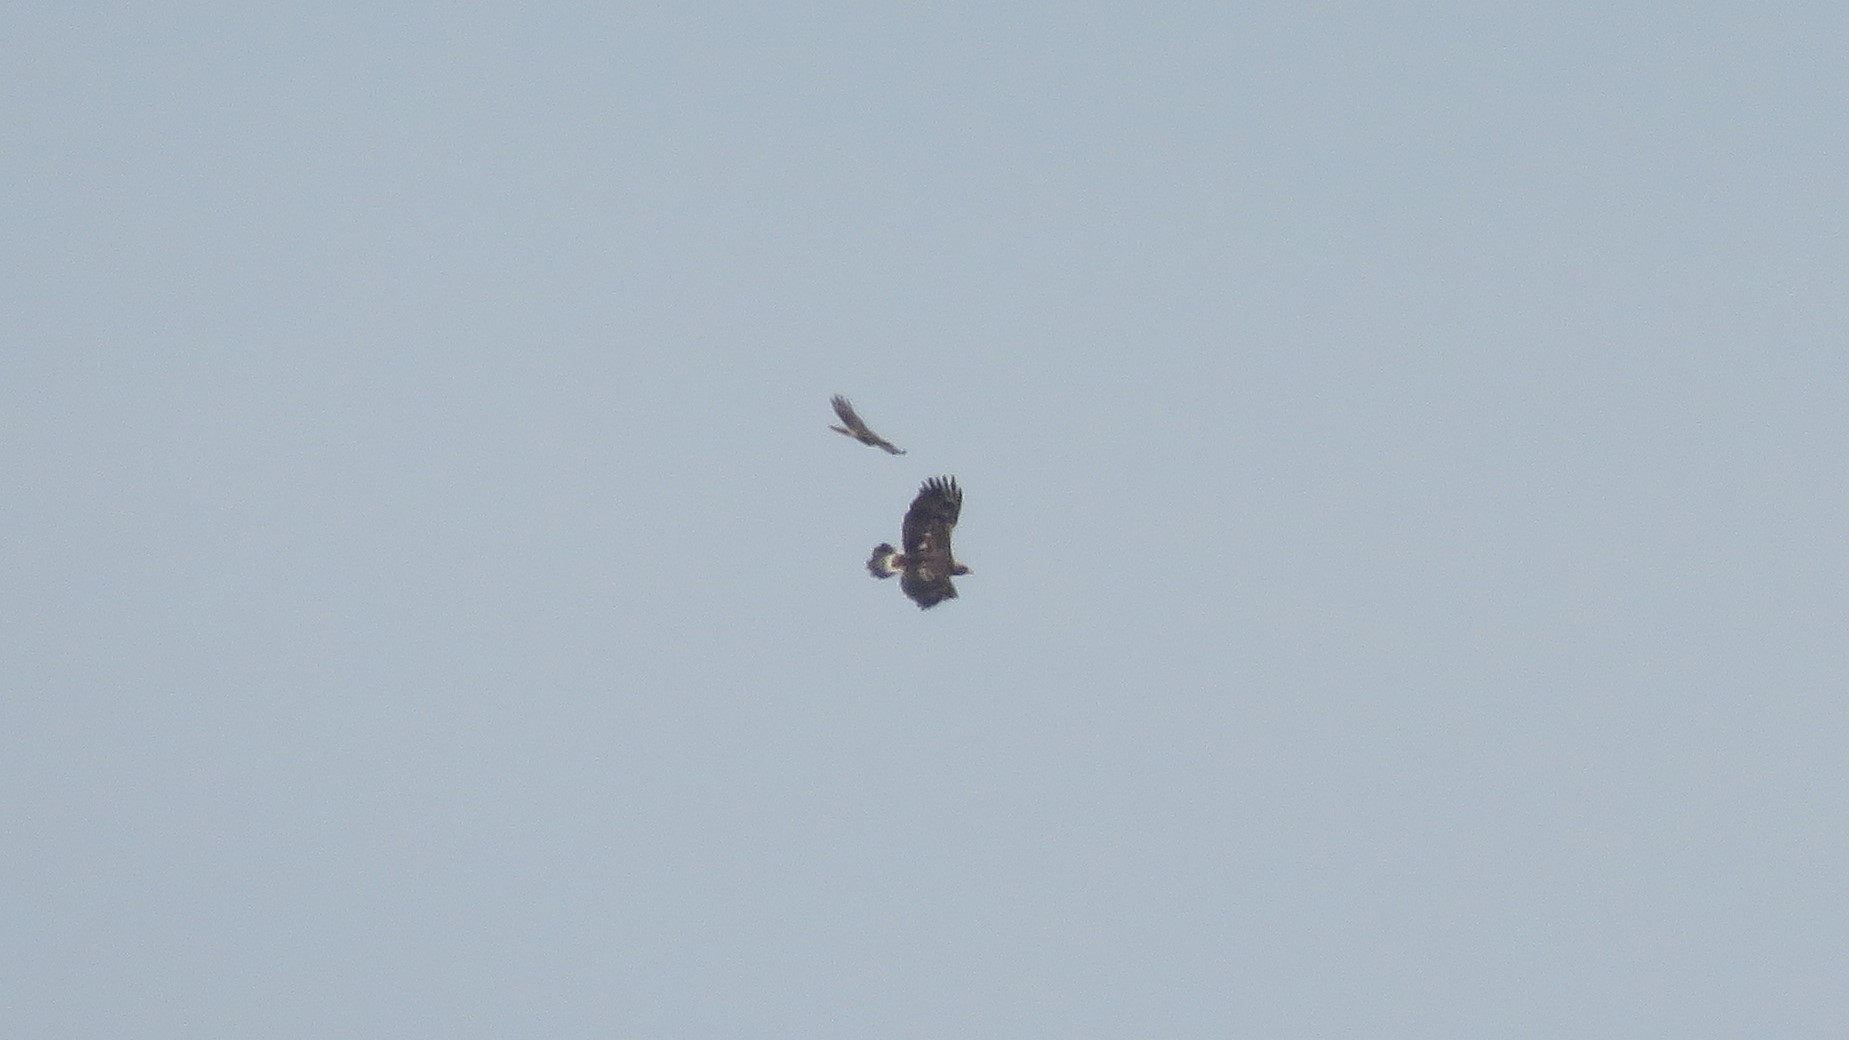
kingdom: Animalia
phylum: Chordata
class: Aves
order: Accipitriformes
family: Accipitridae
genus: Aquila
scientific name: Aquila chrysaetos
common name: Golden eagle
